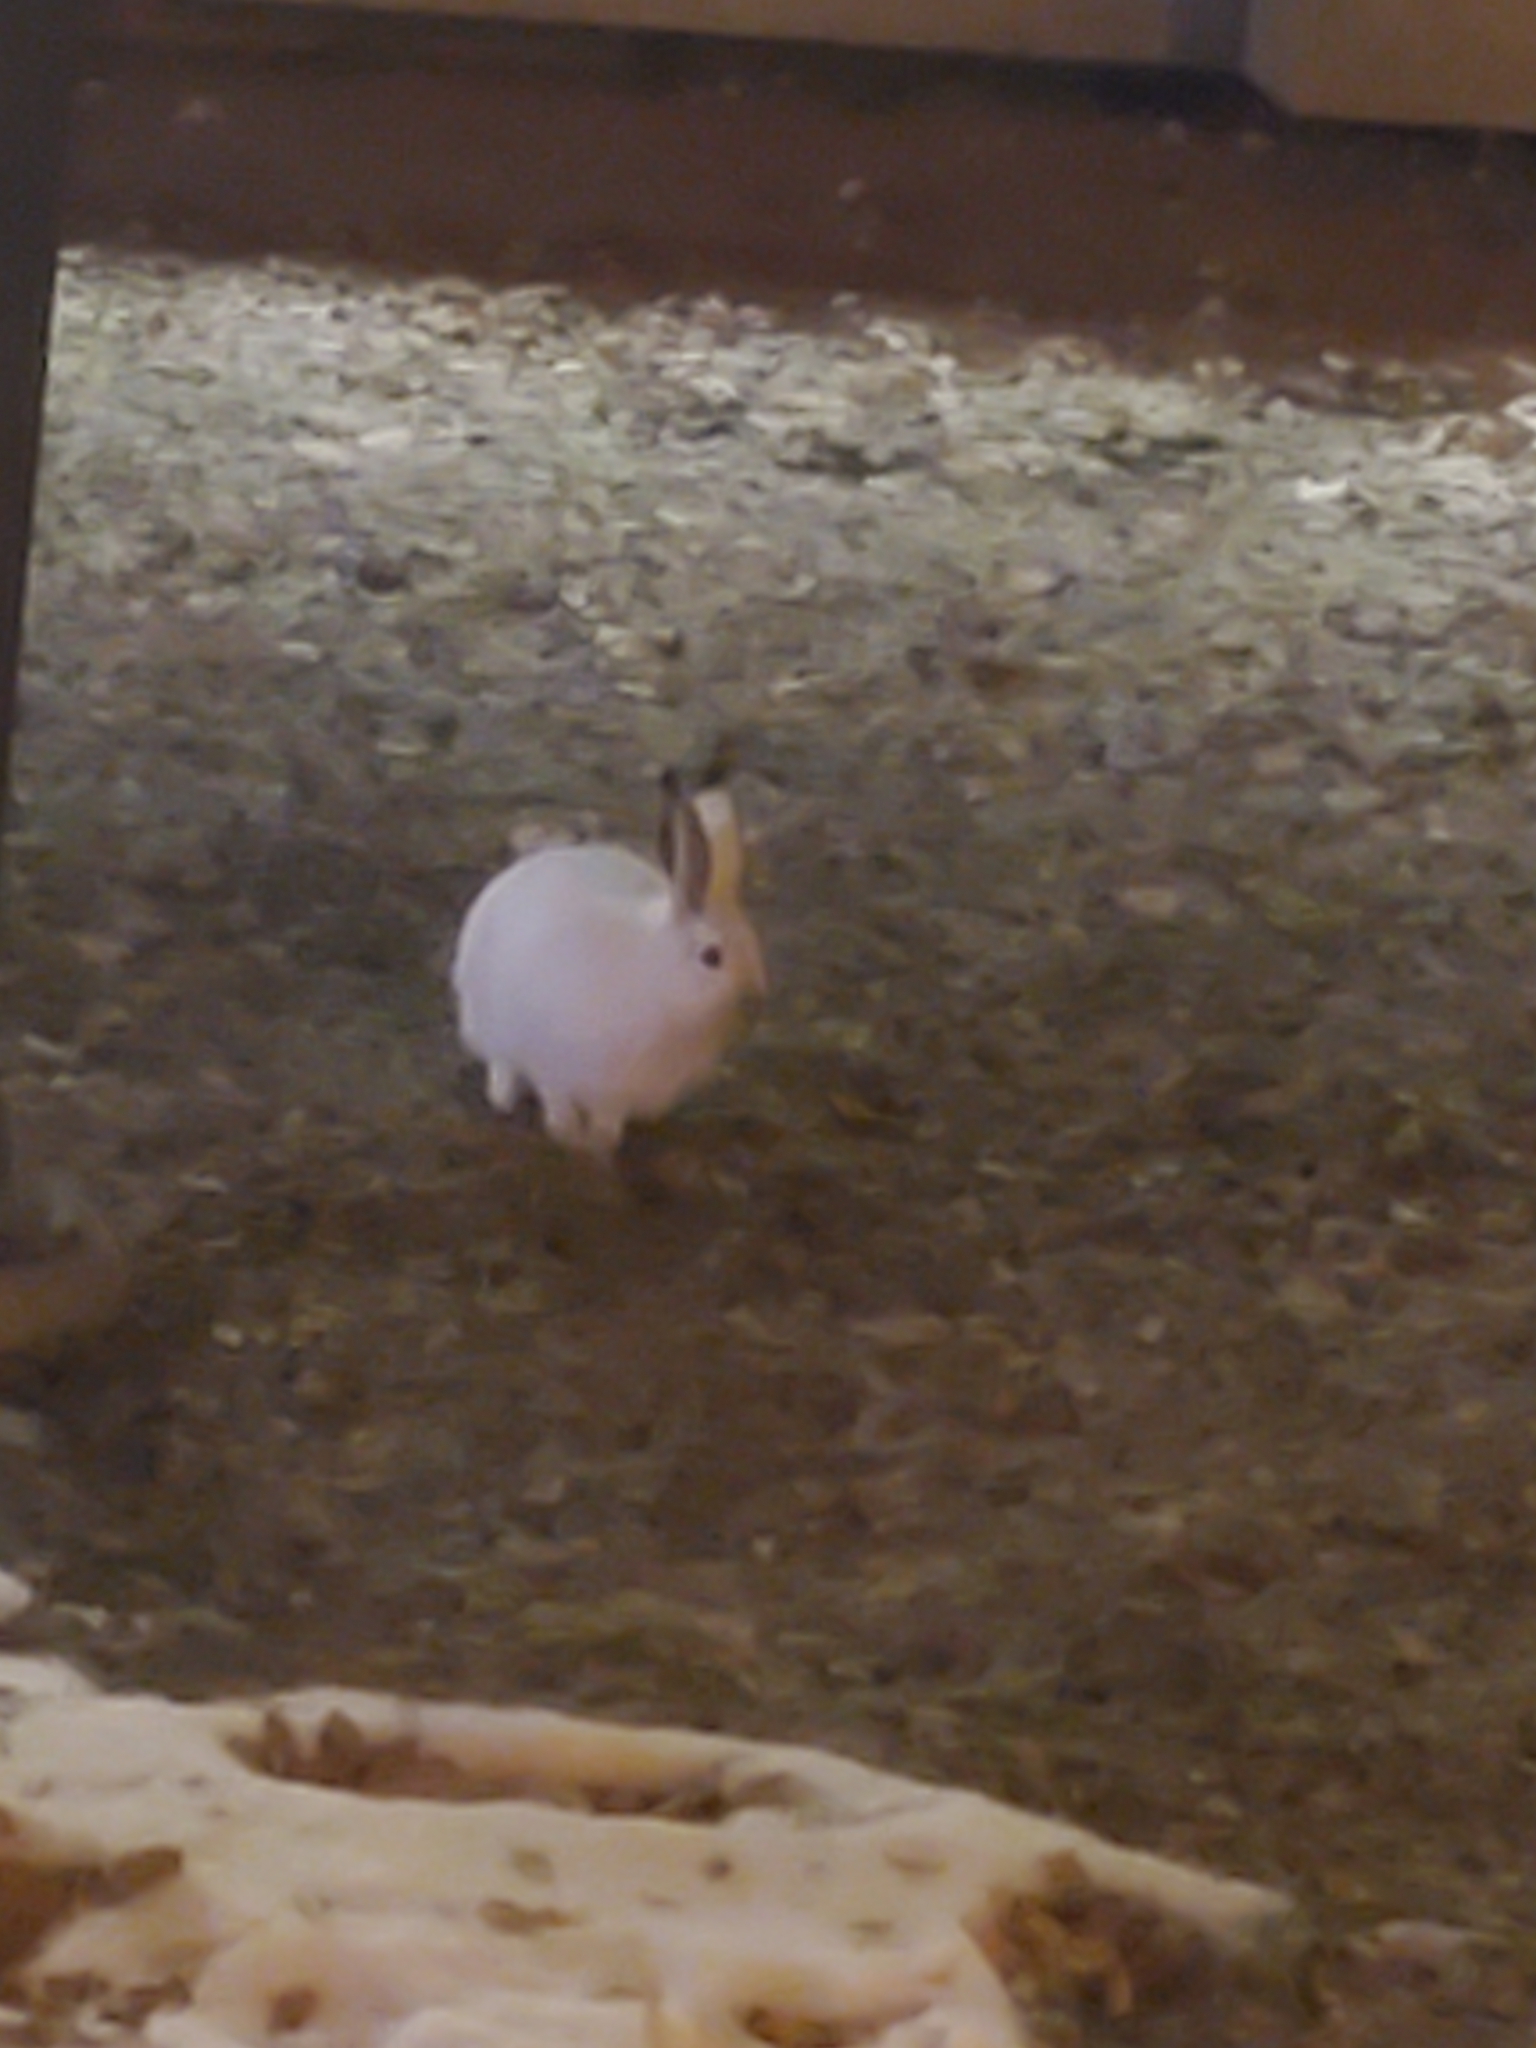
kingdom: Animalia
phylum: Chordata
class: Mammalia
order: Lagomorpha
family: Leporidae
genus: Lepus
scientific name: Lepus townsendii
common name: White-tailed jackrabbit
